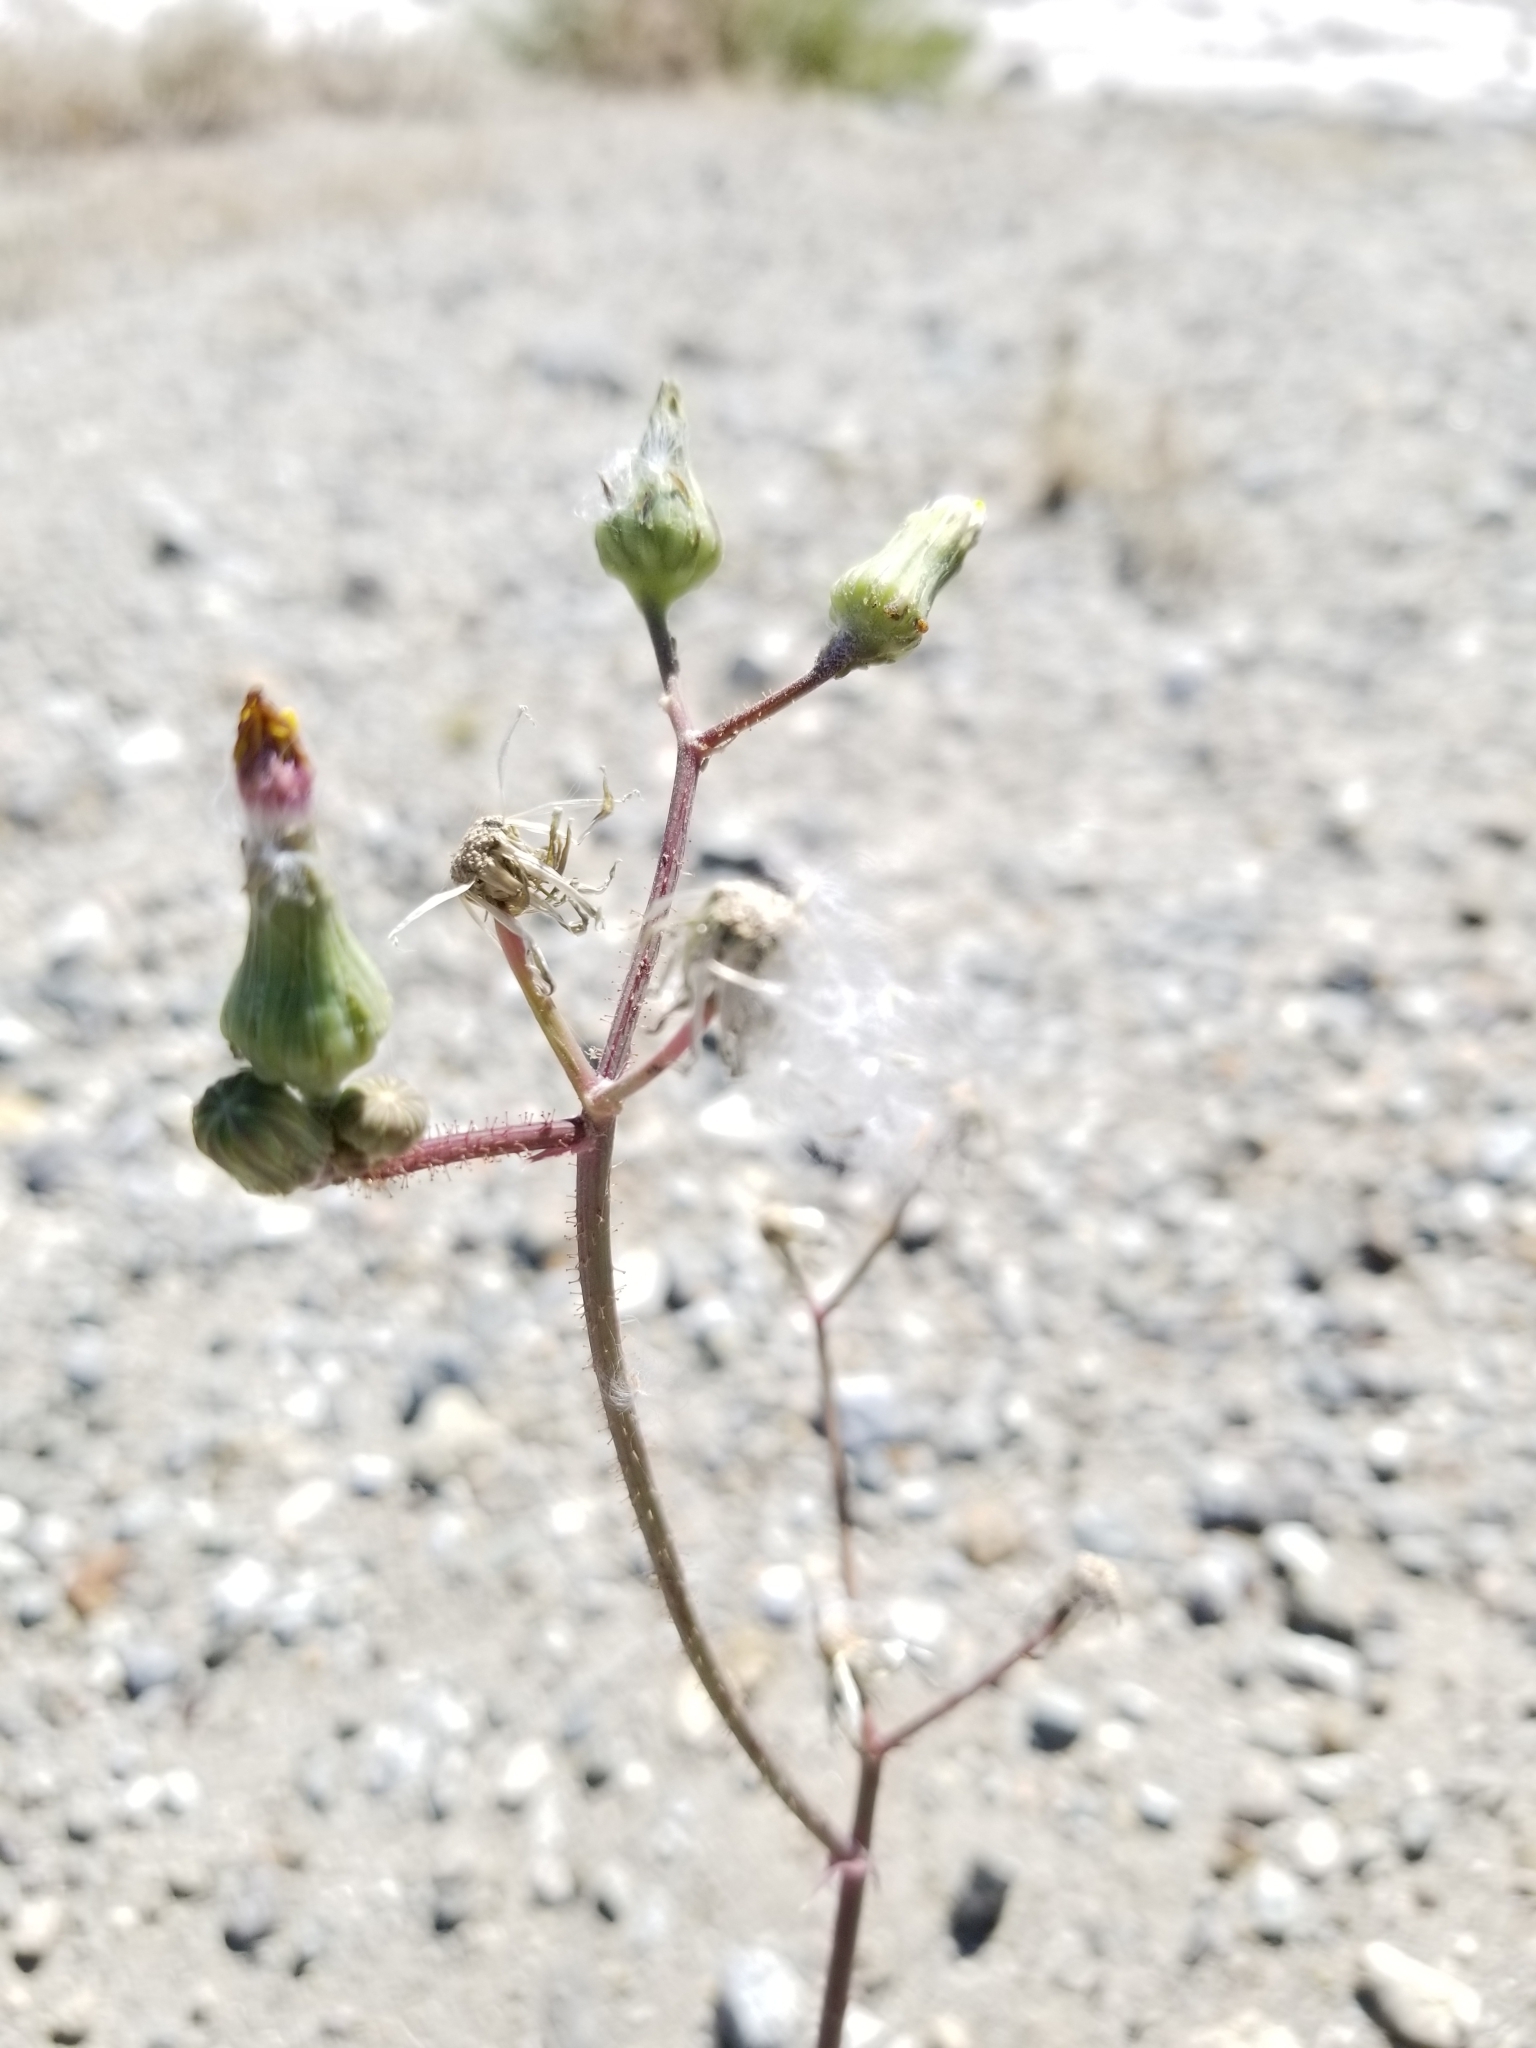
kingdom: Plantae
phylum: Tracheophyta
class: Magnoliopsida
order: Asterales
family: Asteraceae
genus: Sonchus
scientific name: Sonchus oleraceus
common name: Common sowthistle
